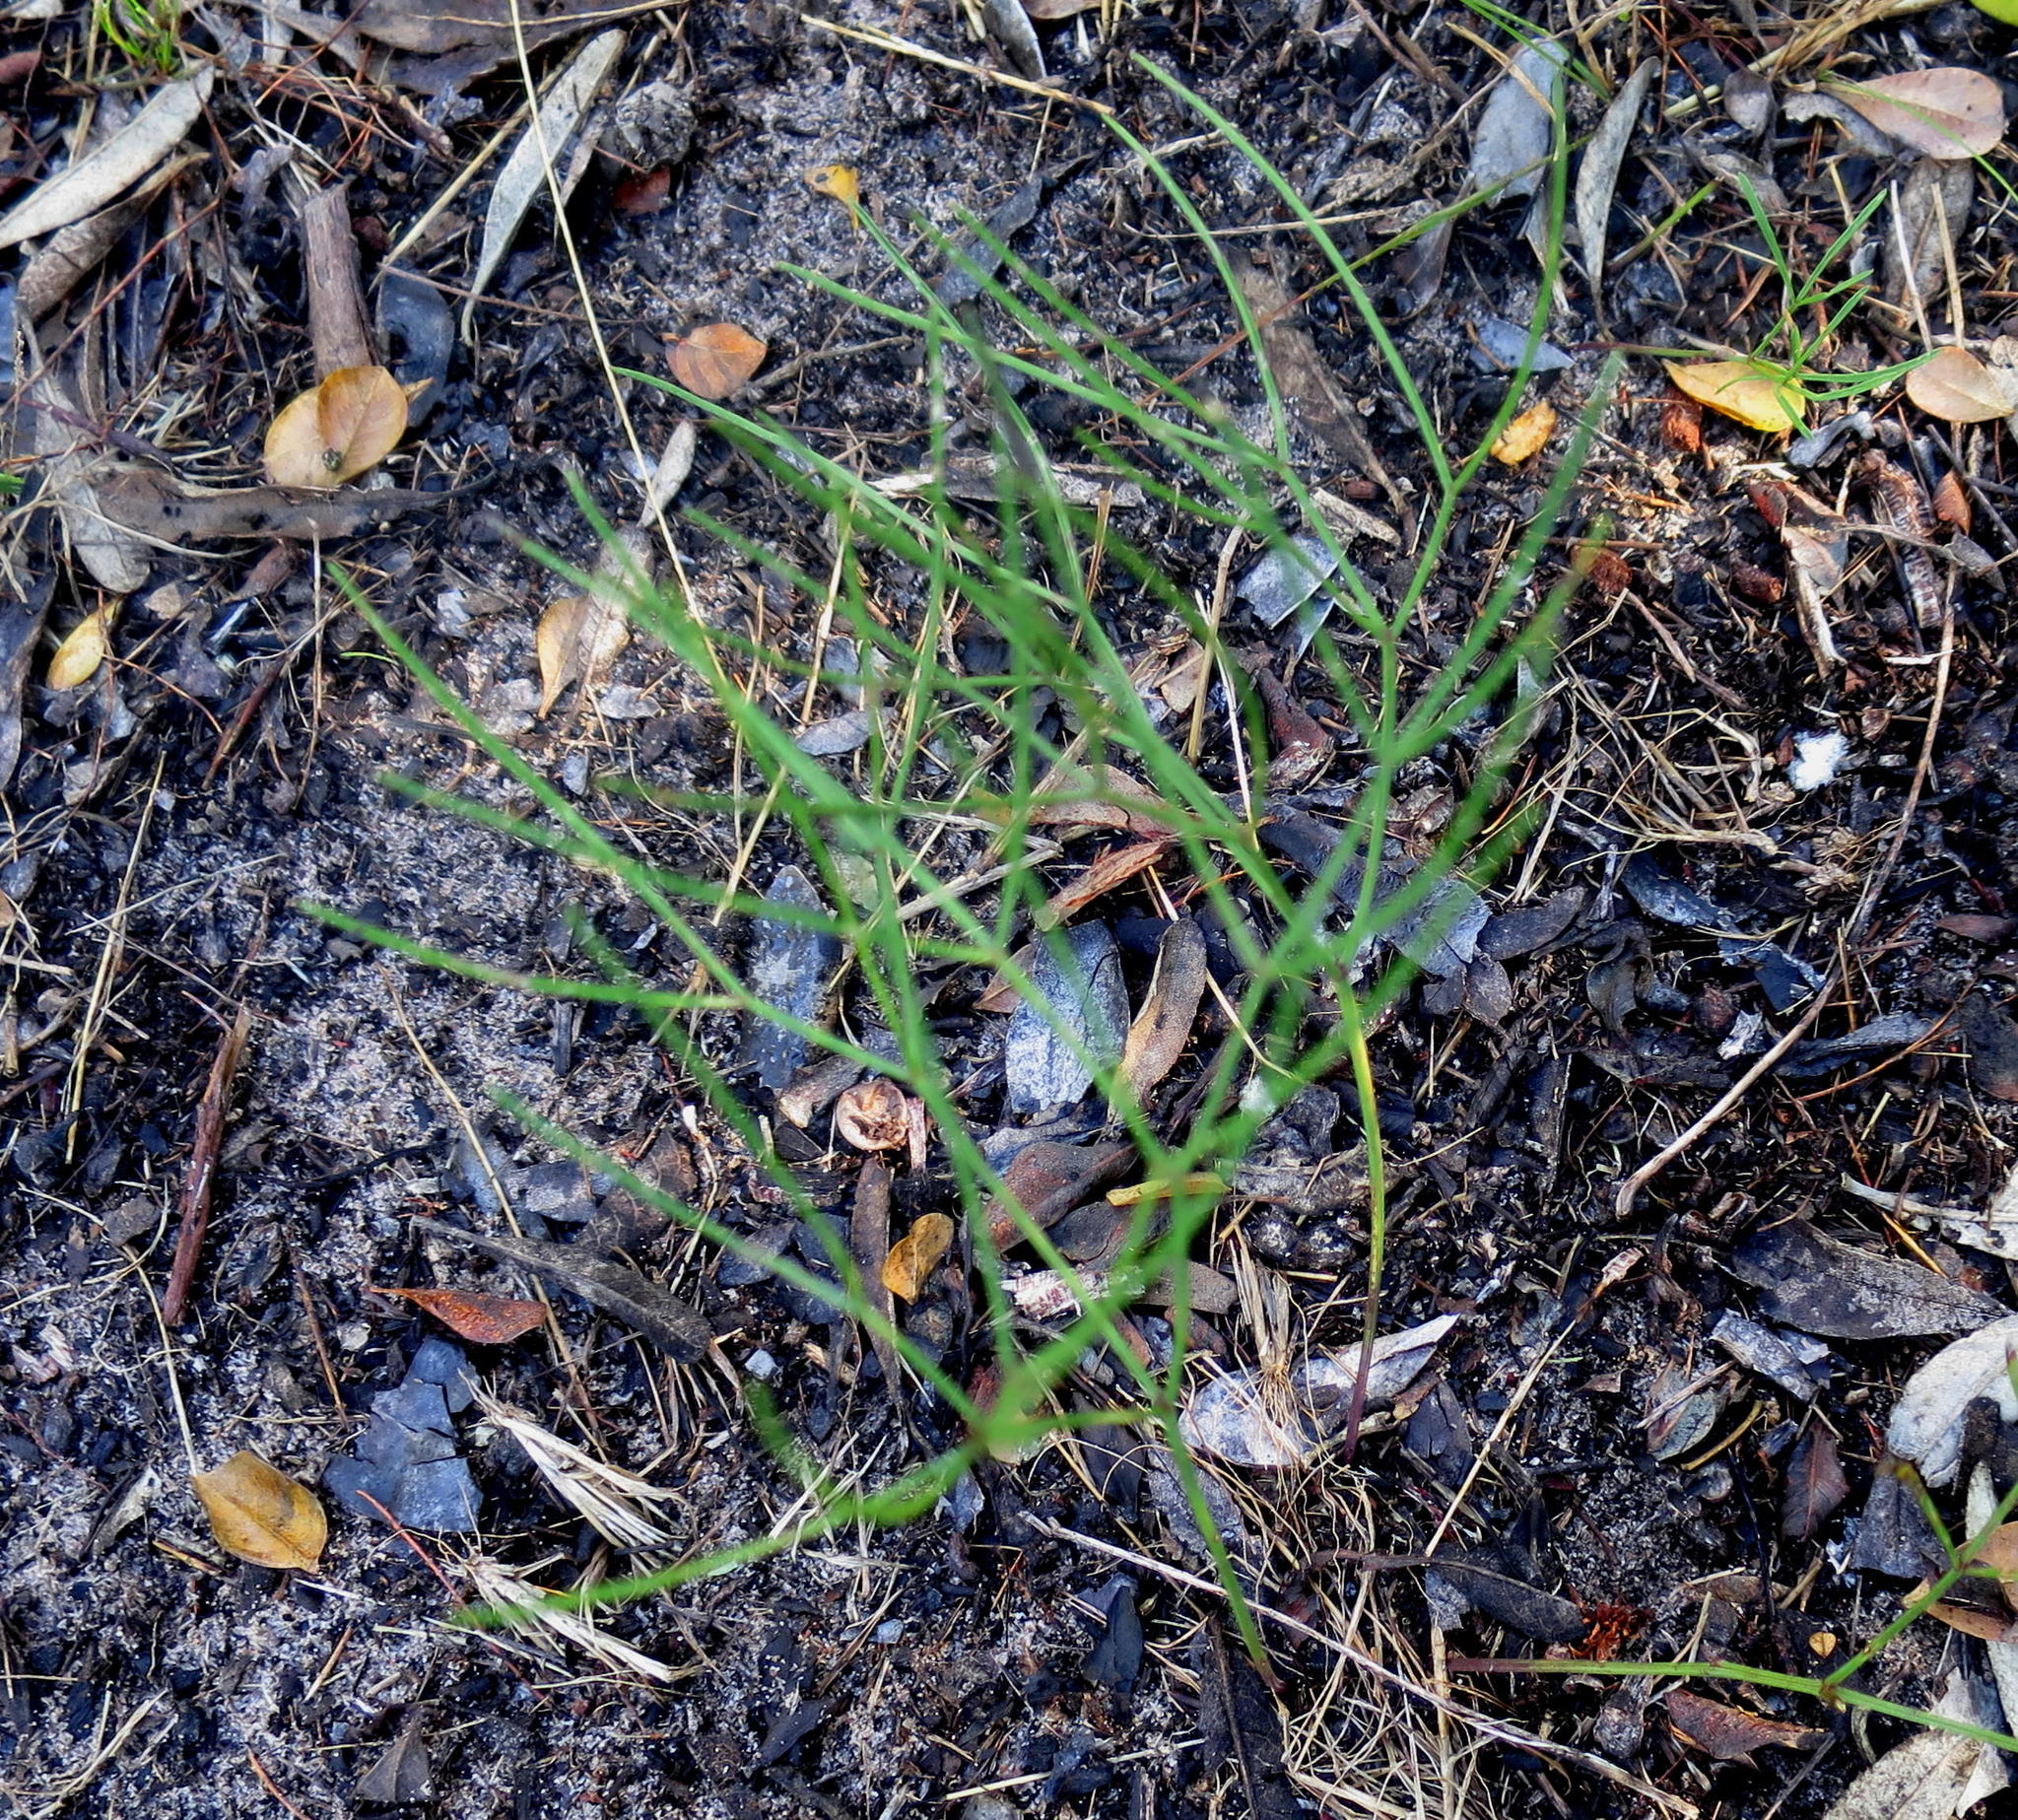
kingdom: Plantae
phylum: Tracheophyta
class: Magnoliopsida
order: Apiales
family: Apiaceae
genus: Nanobubon
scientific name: Nanobubon hypogaeum
